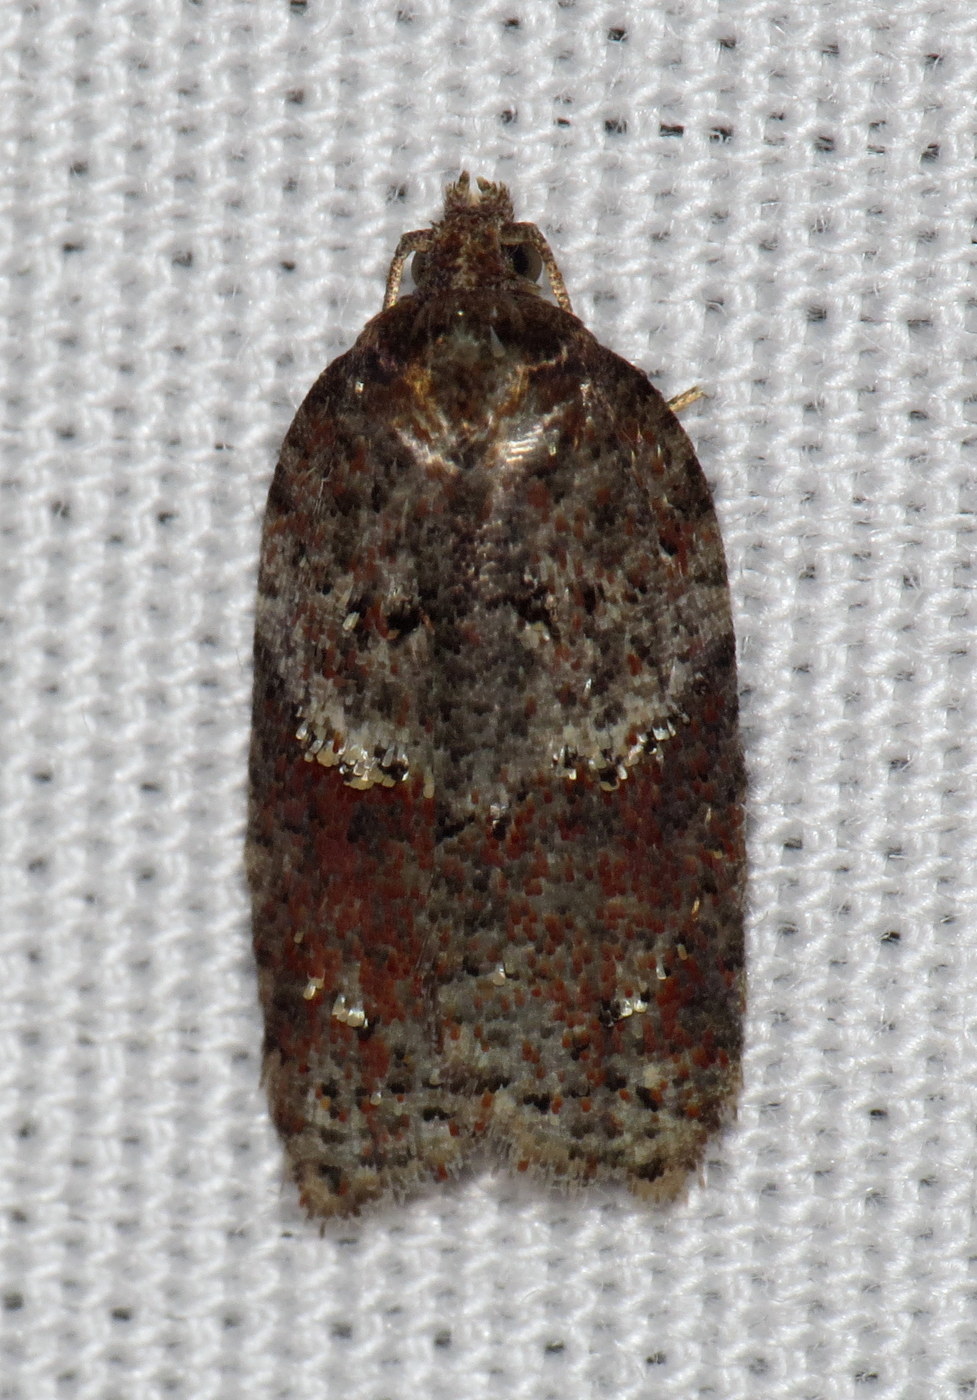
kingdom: Animalia
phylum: Arthropoda
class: Insecta
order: Lepidoptera
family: Tortricidae
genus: Acleris
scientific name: Acleris schalleriana
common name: Viburnum button
